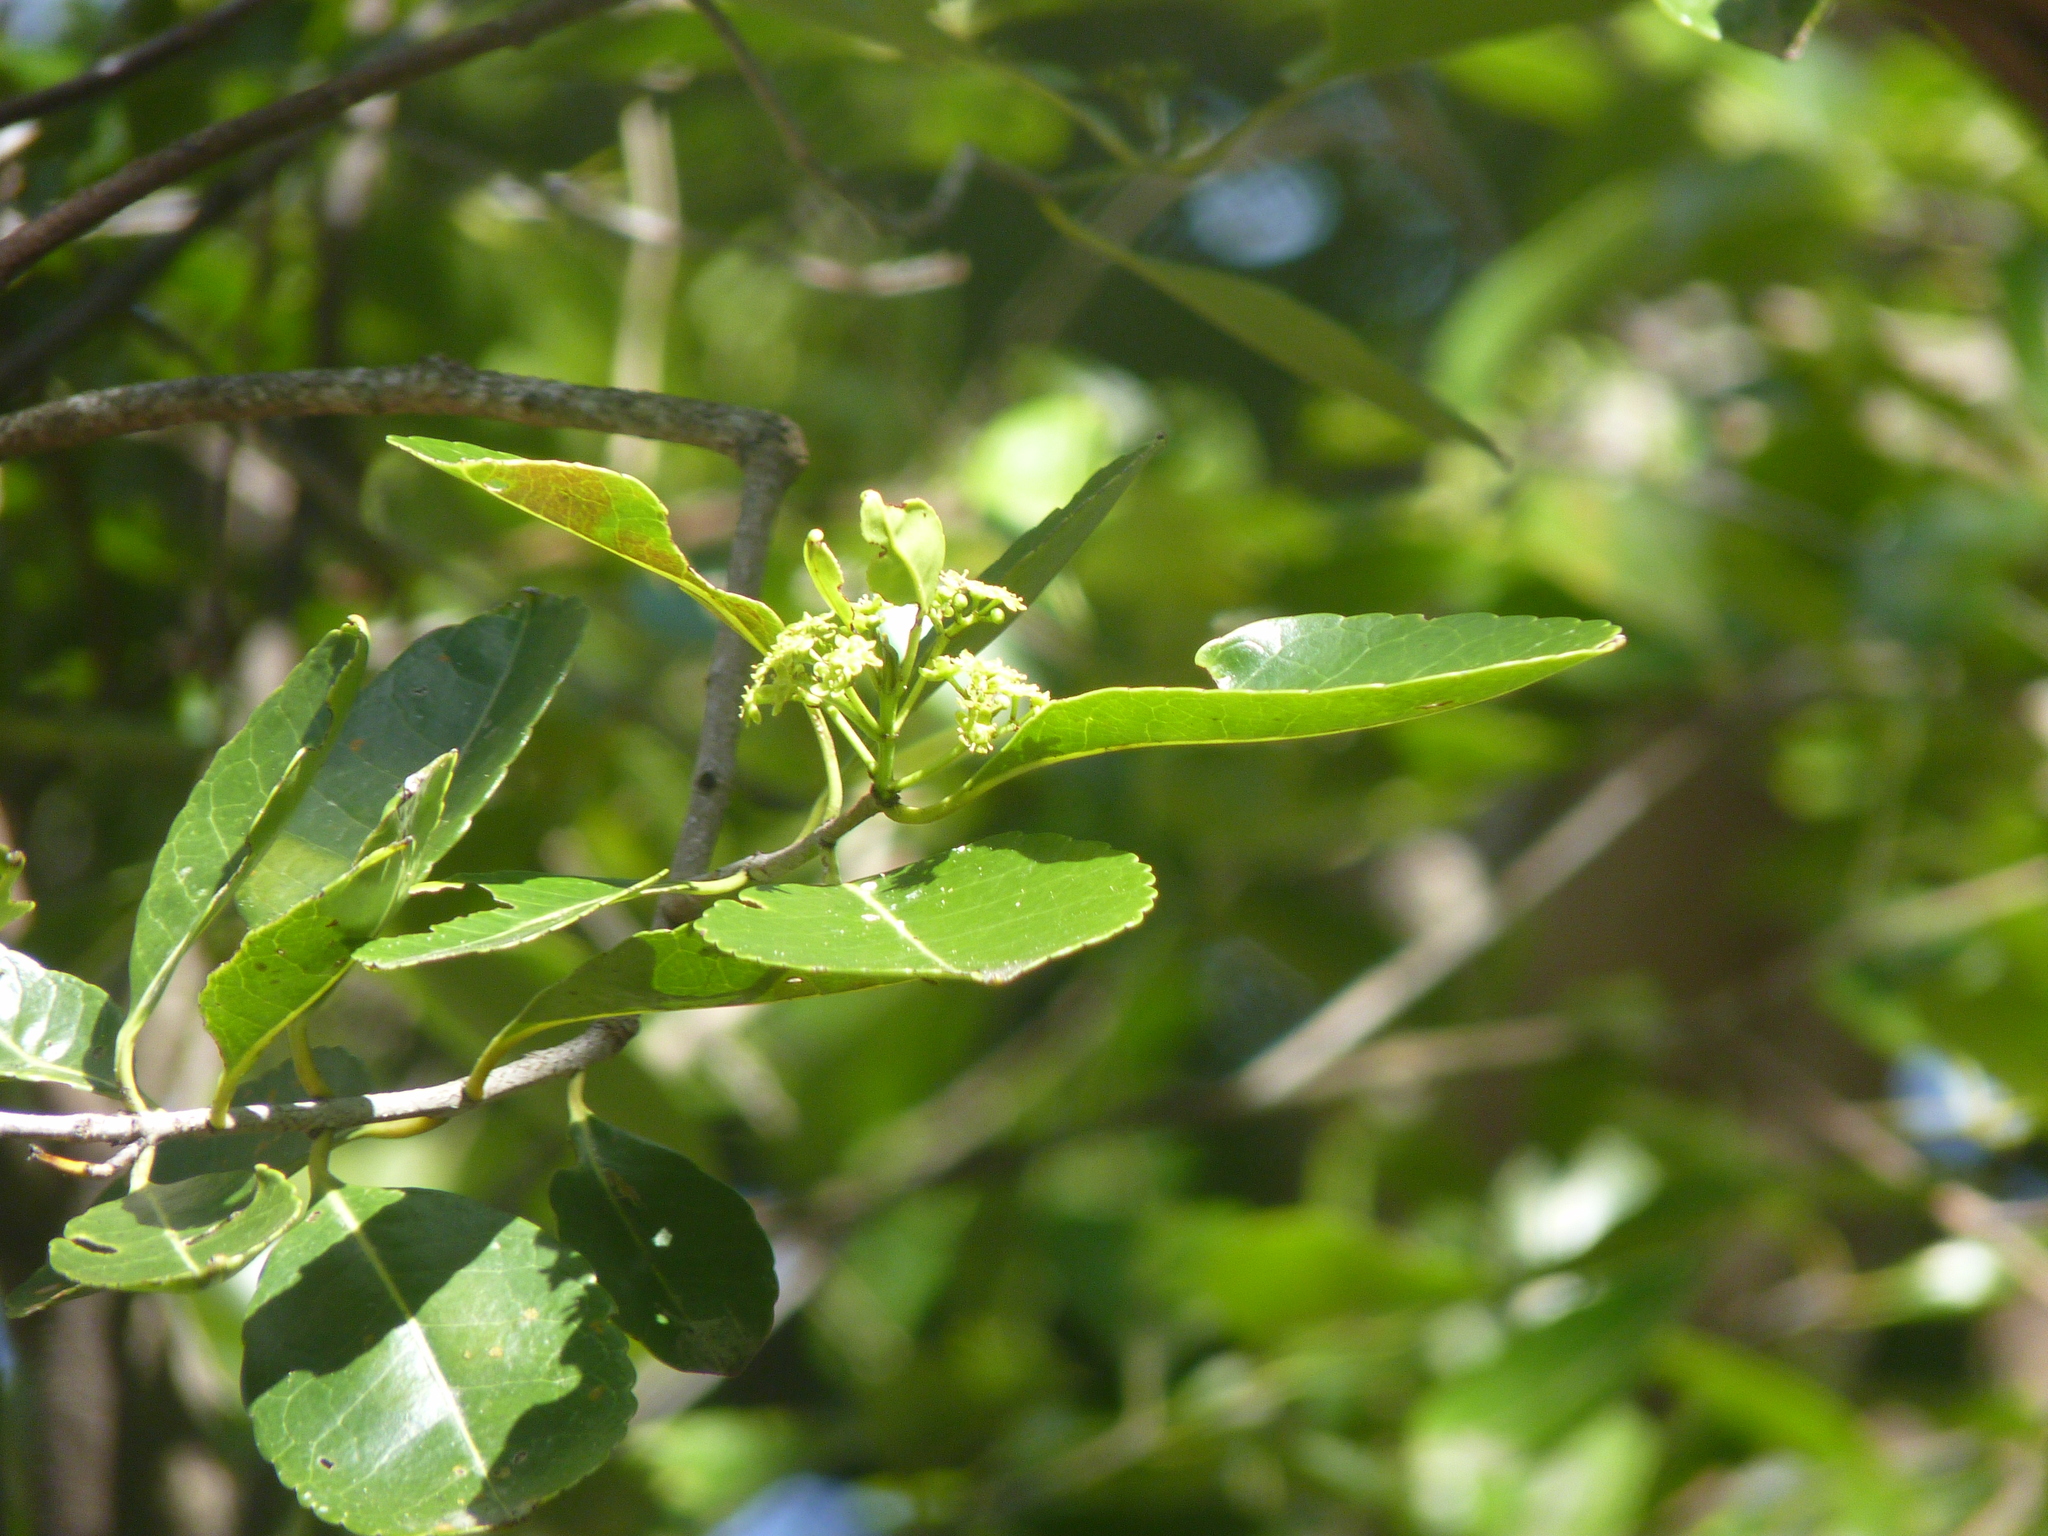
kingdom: Plantae
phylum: Tracheophyta
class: Magnoliopsida
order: Celastrales
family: Celastraceae
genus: Elaeodendron
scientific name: Elaeodendron orientale
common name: False olive
